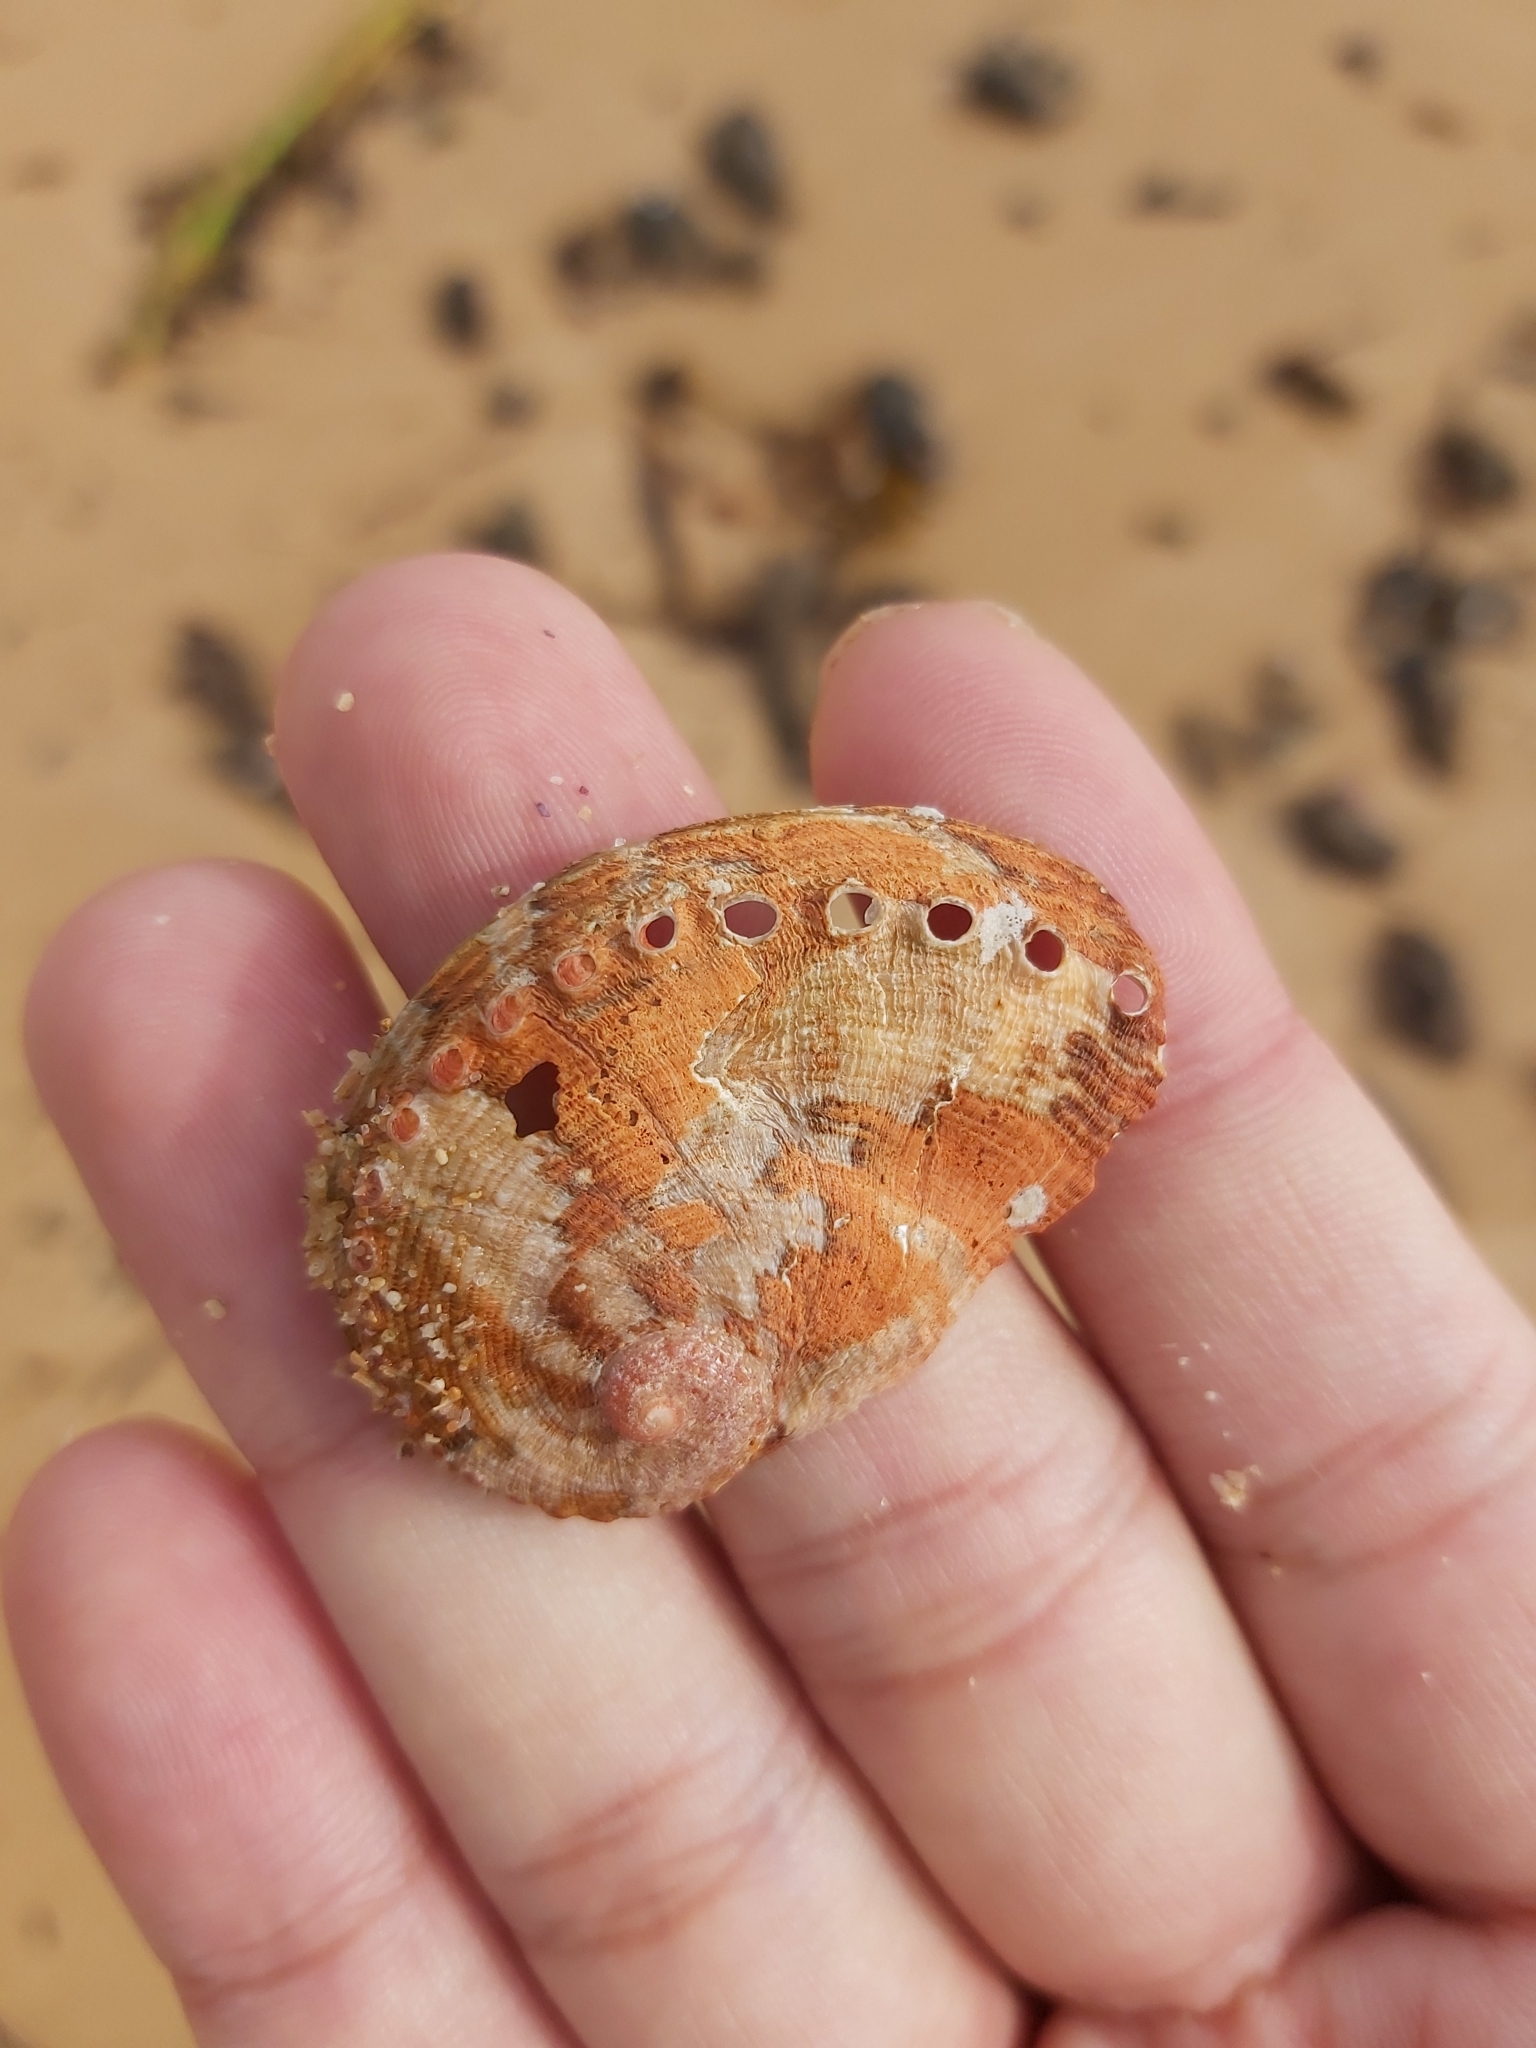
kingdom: Animalia
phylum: Mollusca
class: Gastropoda
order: Lepetellida
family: Haliotidae
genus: Haliotis
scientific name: Haliotis coccoradiata
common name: Reddish-rayed abalone
